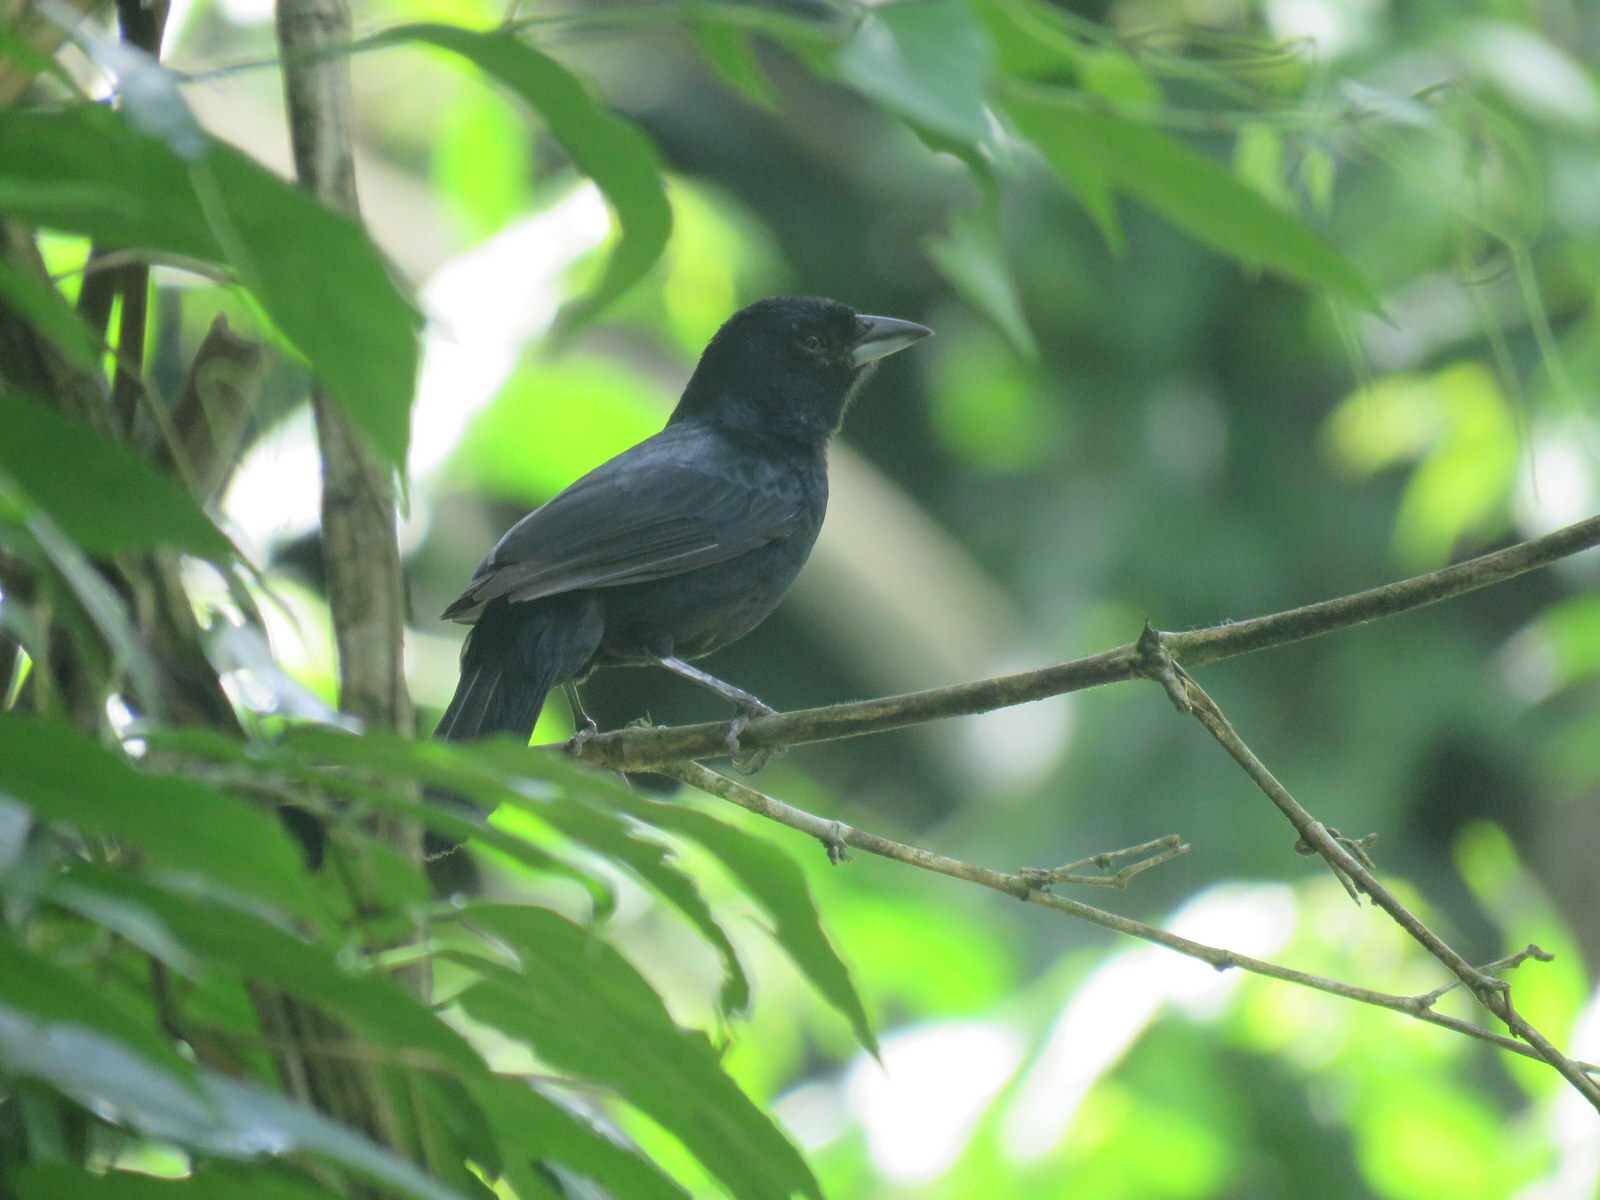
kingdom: Animalia
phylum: Chordata
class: Aves
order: Passeriformes
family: Thraupidae
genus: Tachyphonus
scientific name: Tachyphonus coronatus
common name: Ruby-crowned tanager
